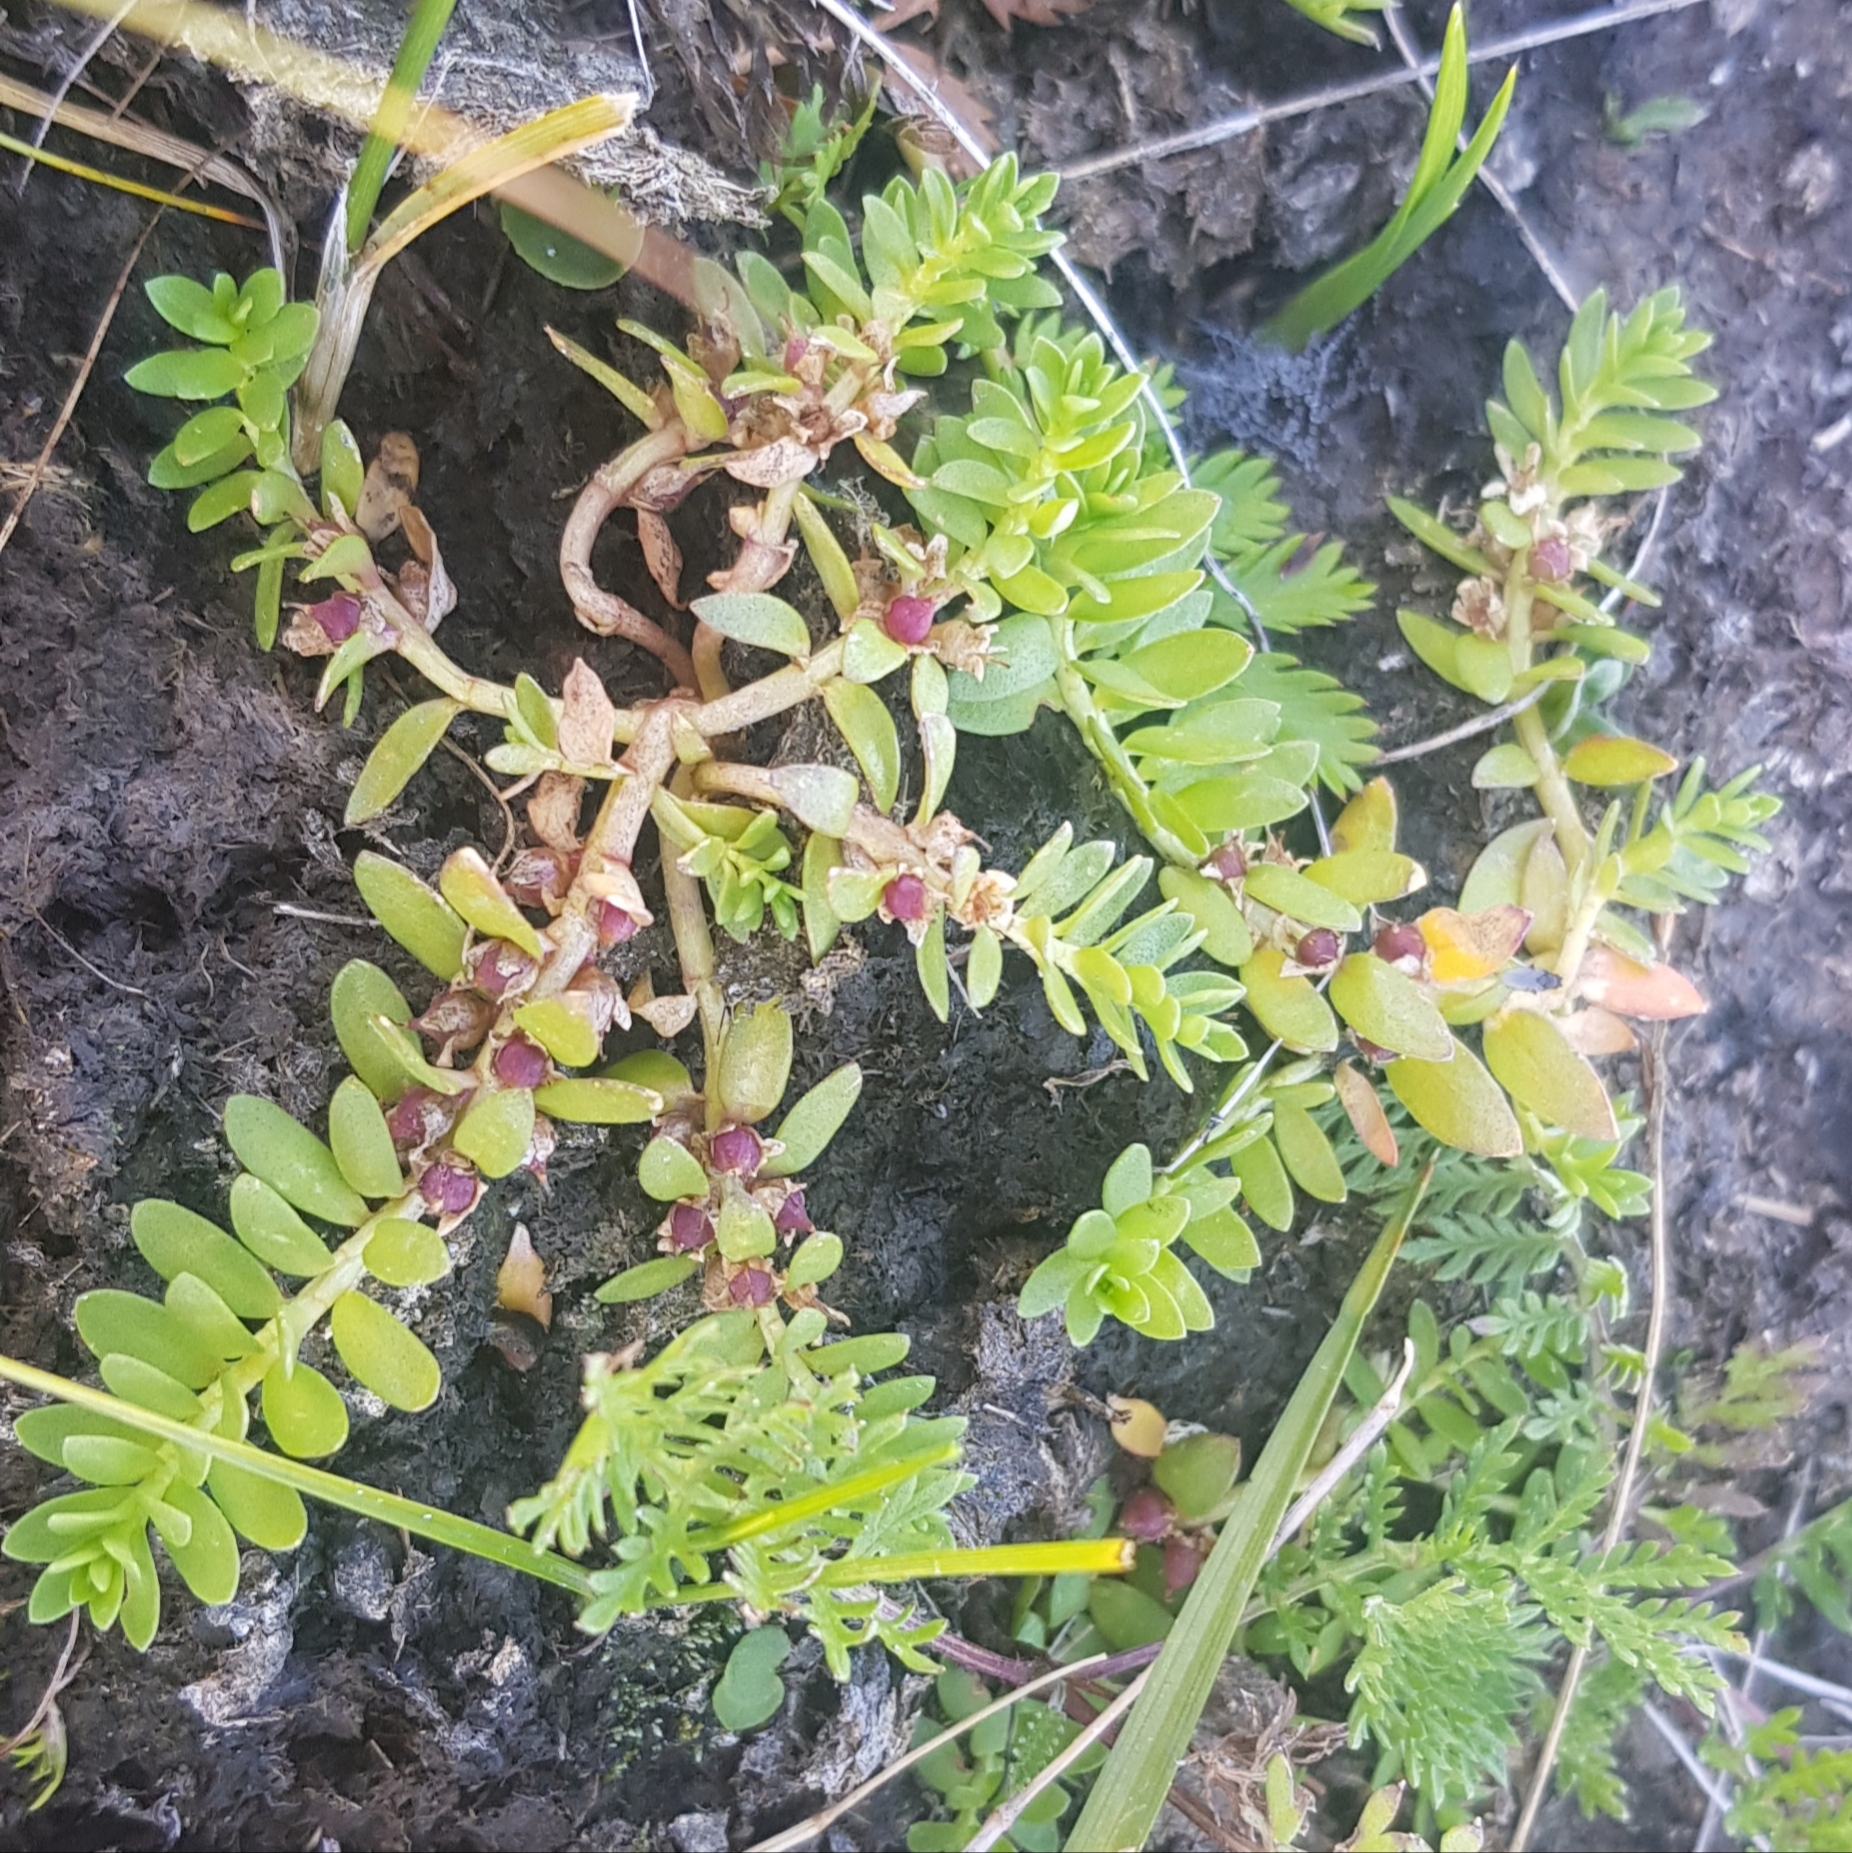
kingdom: Plantae
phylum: Tracheophyta
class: Magnoliopsida
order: Ericales
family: Primulaceae
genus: Lysimachia
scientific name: Lysimachia maritima
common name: Sea milkwort
